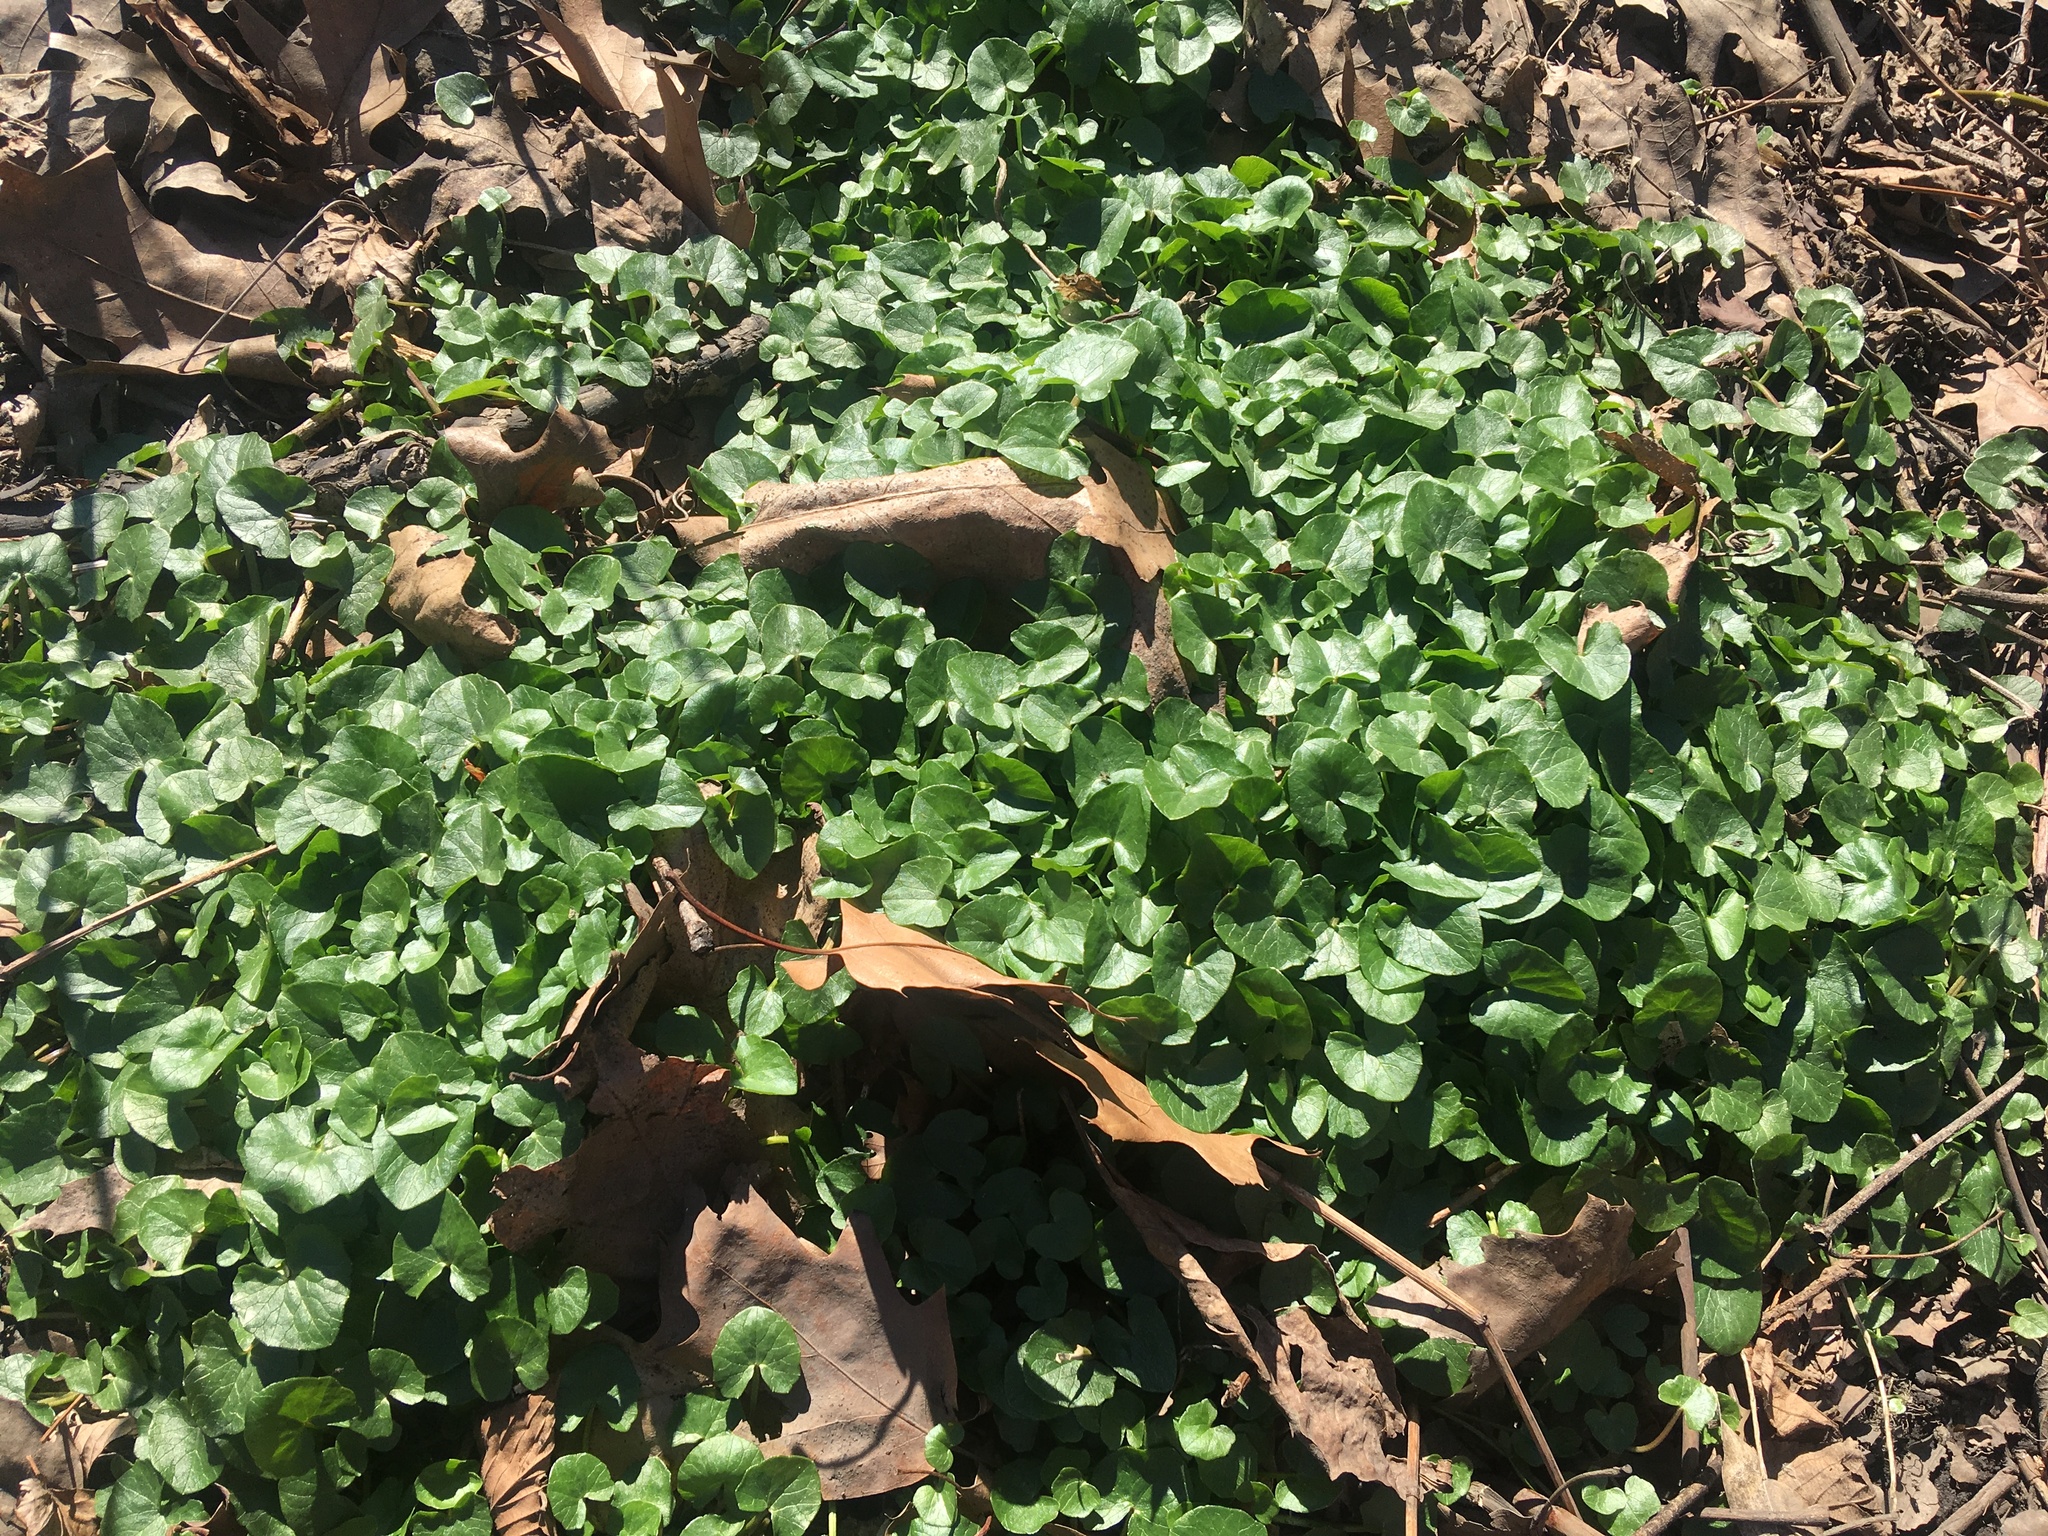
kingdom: Plantae
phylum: Tracheophyta
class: Magnoliopsida
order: Ranunculales
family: Ranunculaceae
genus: Ficaria
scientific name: Ficaria verna
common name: Lesser celandine
